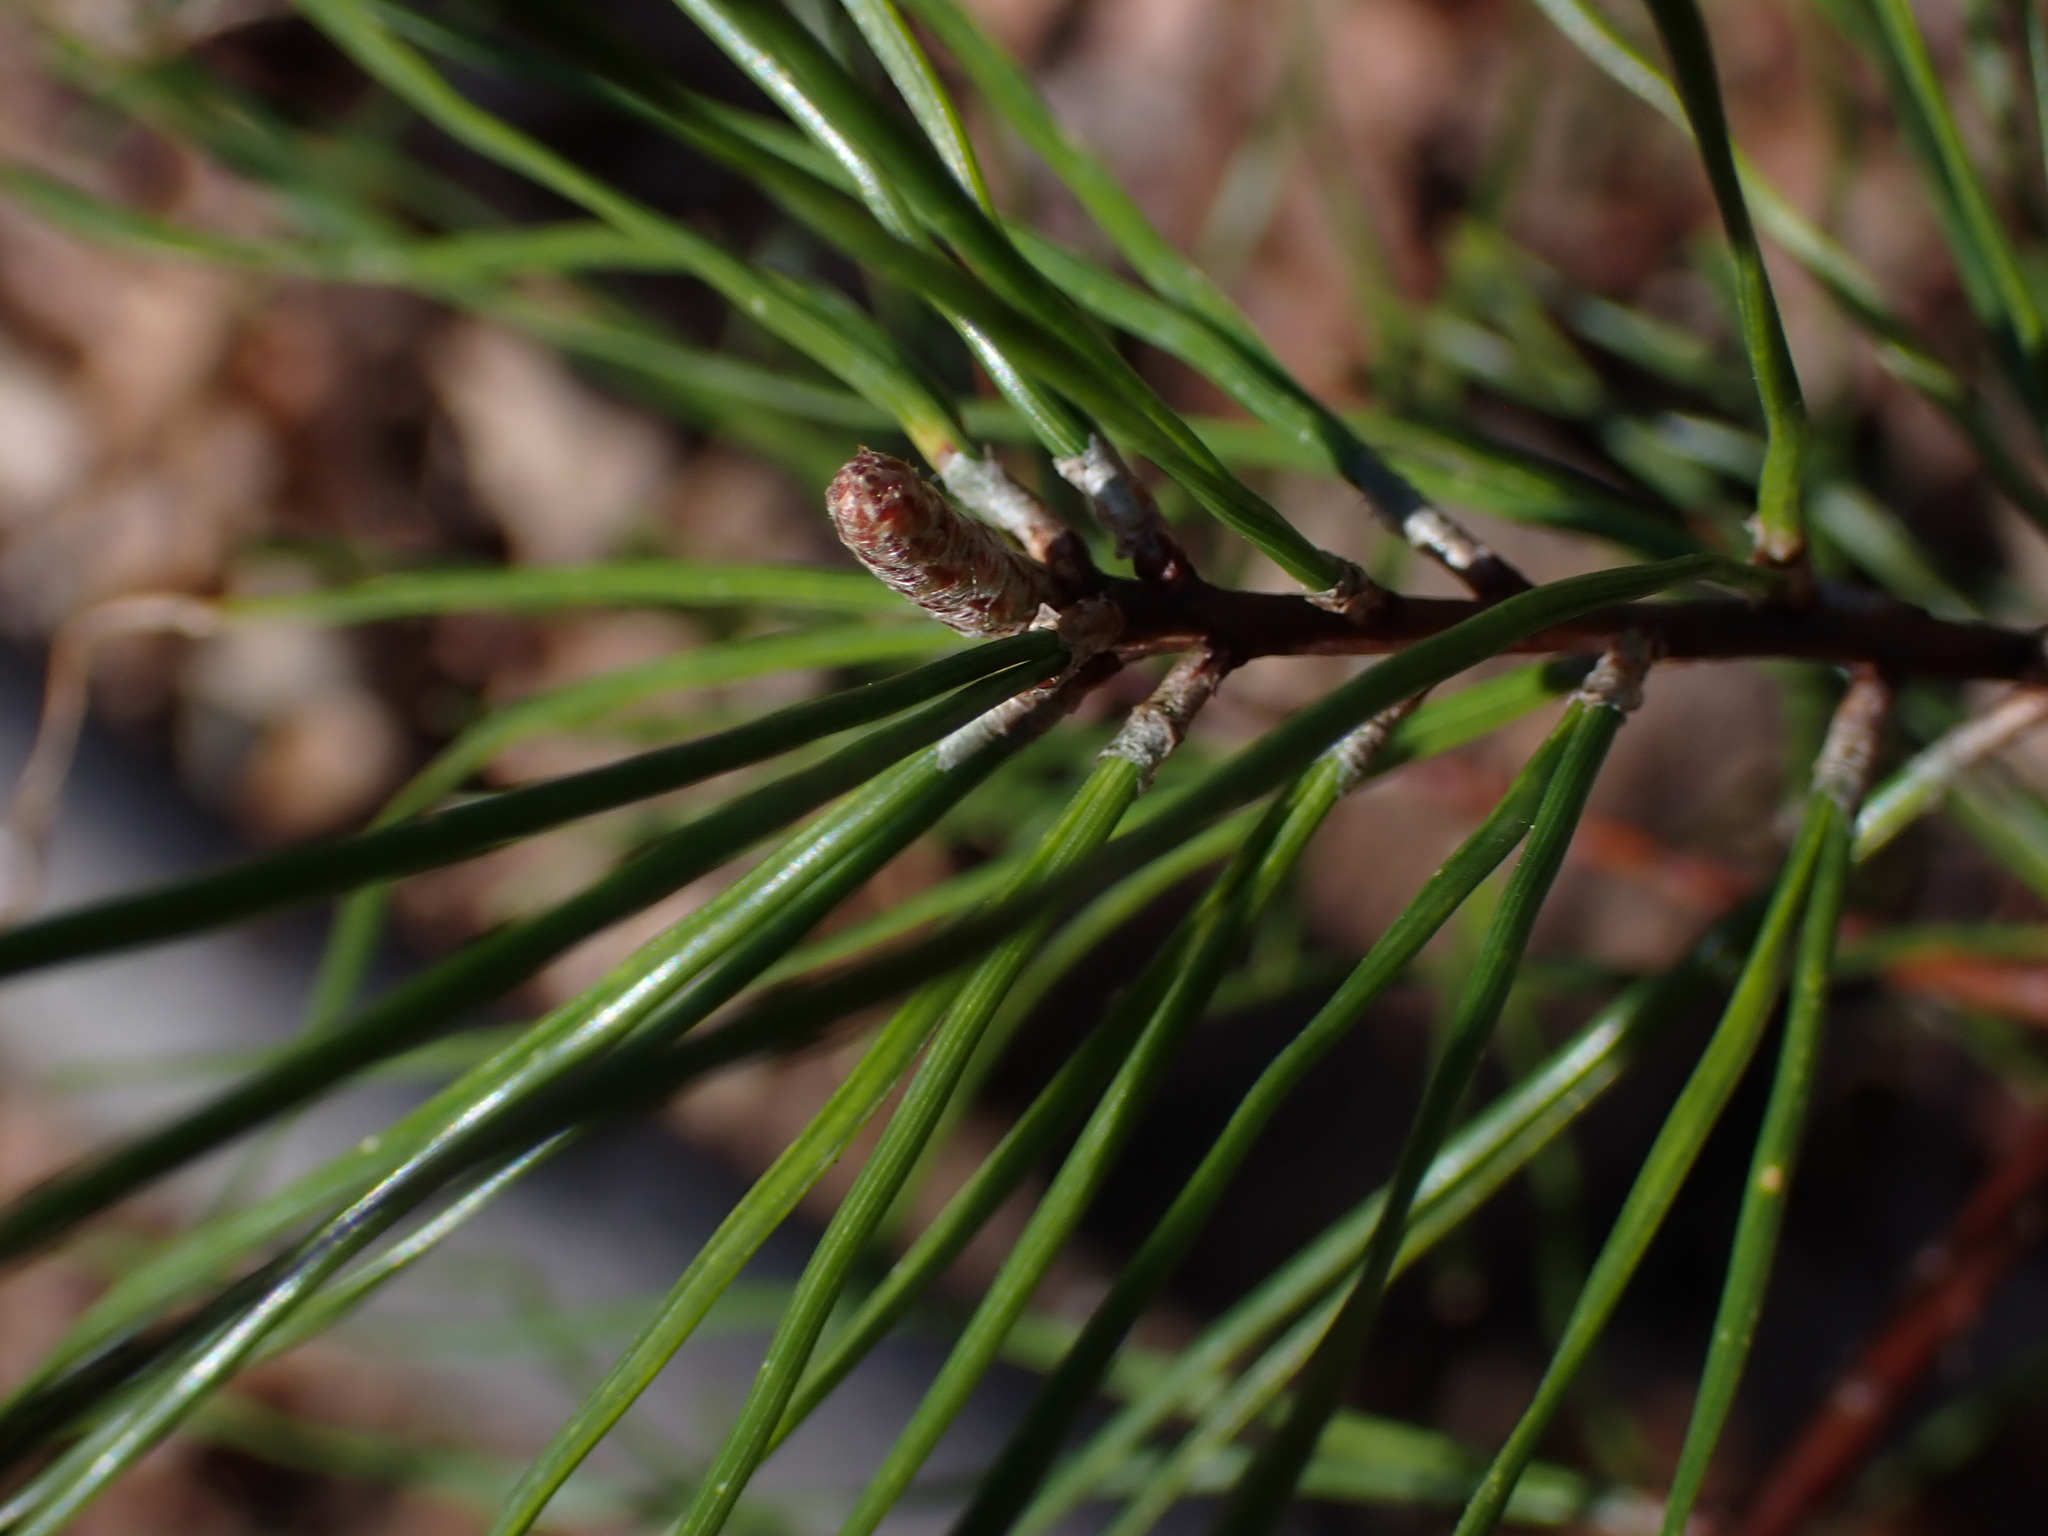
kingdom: Plantae
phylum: Tracheophyta
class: Pinopsida
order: Pinales
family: Pinaceae
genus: Pinus
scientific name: Pinus virginiana
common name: Scrub pine
